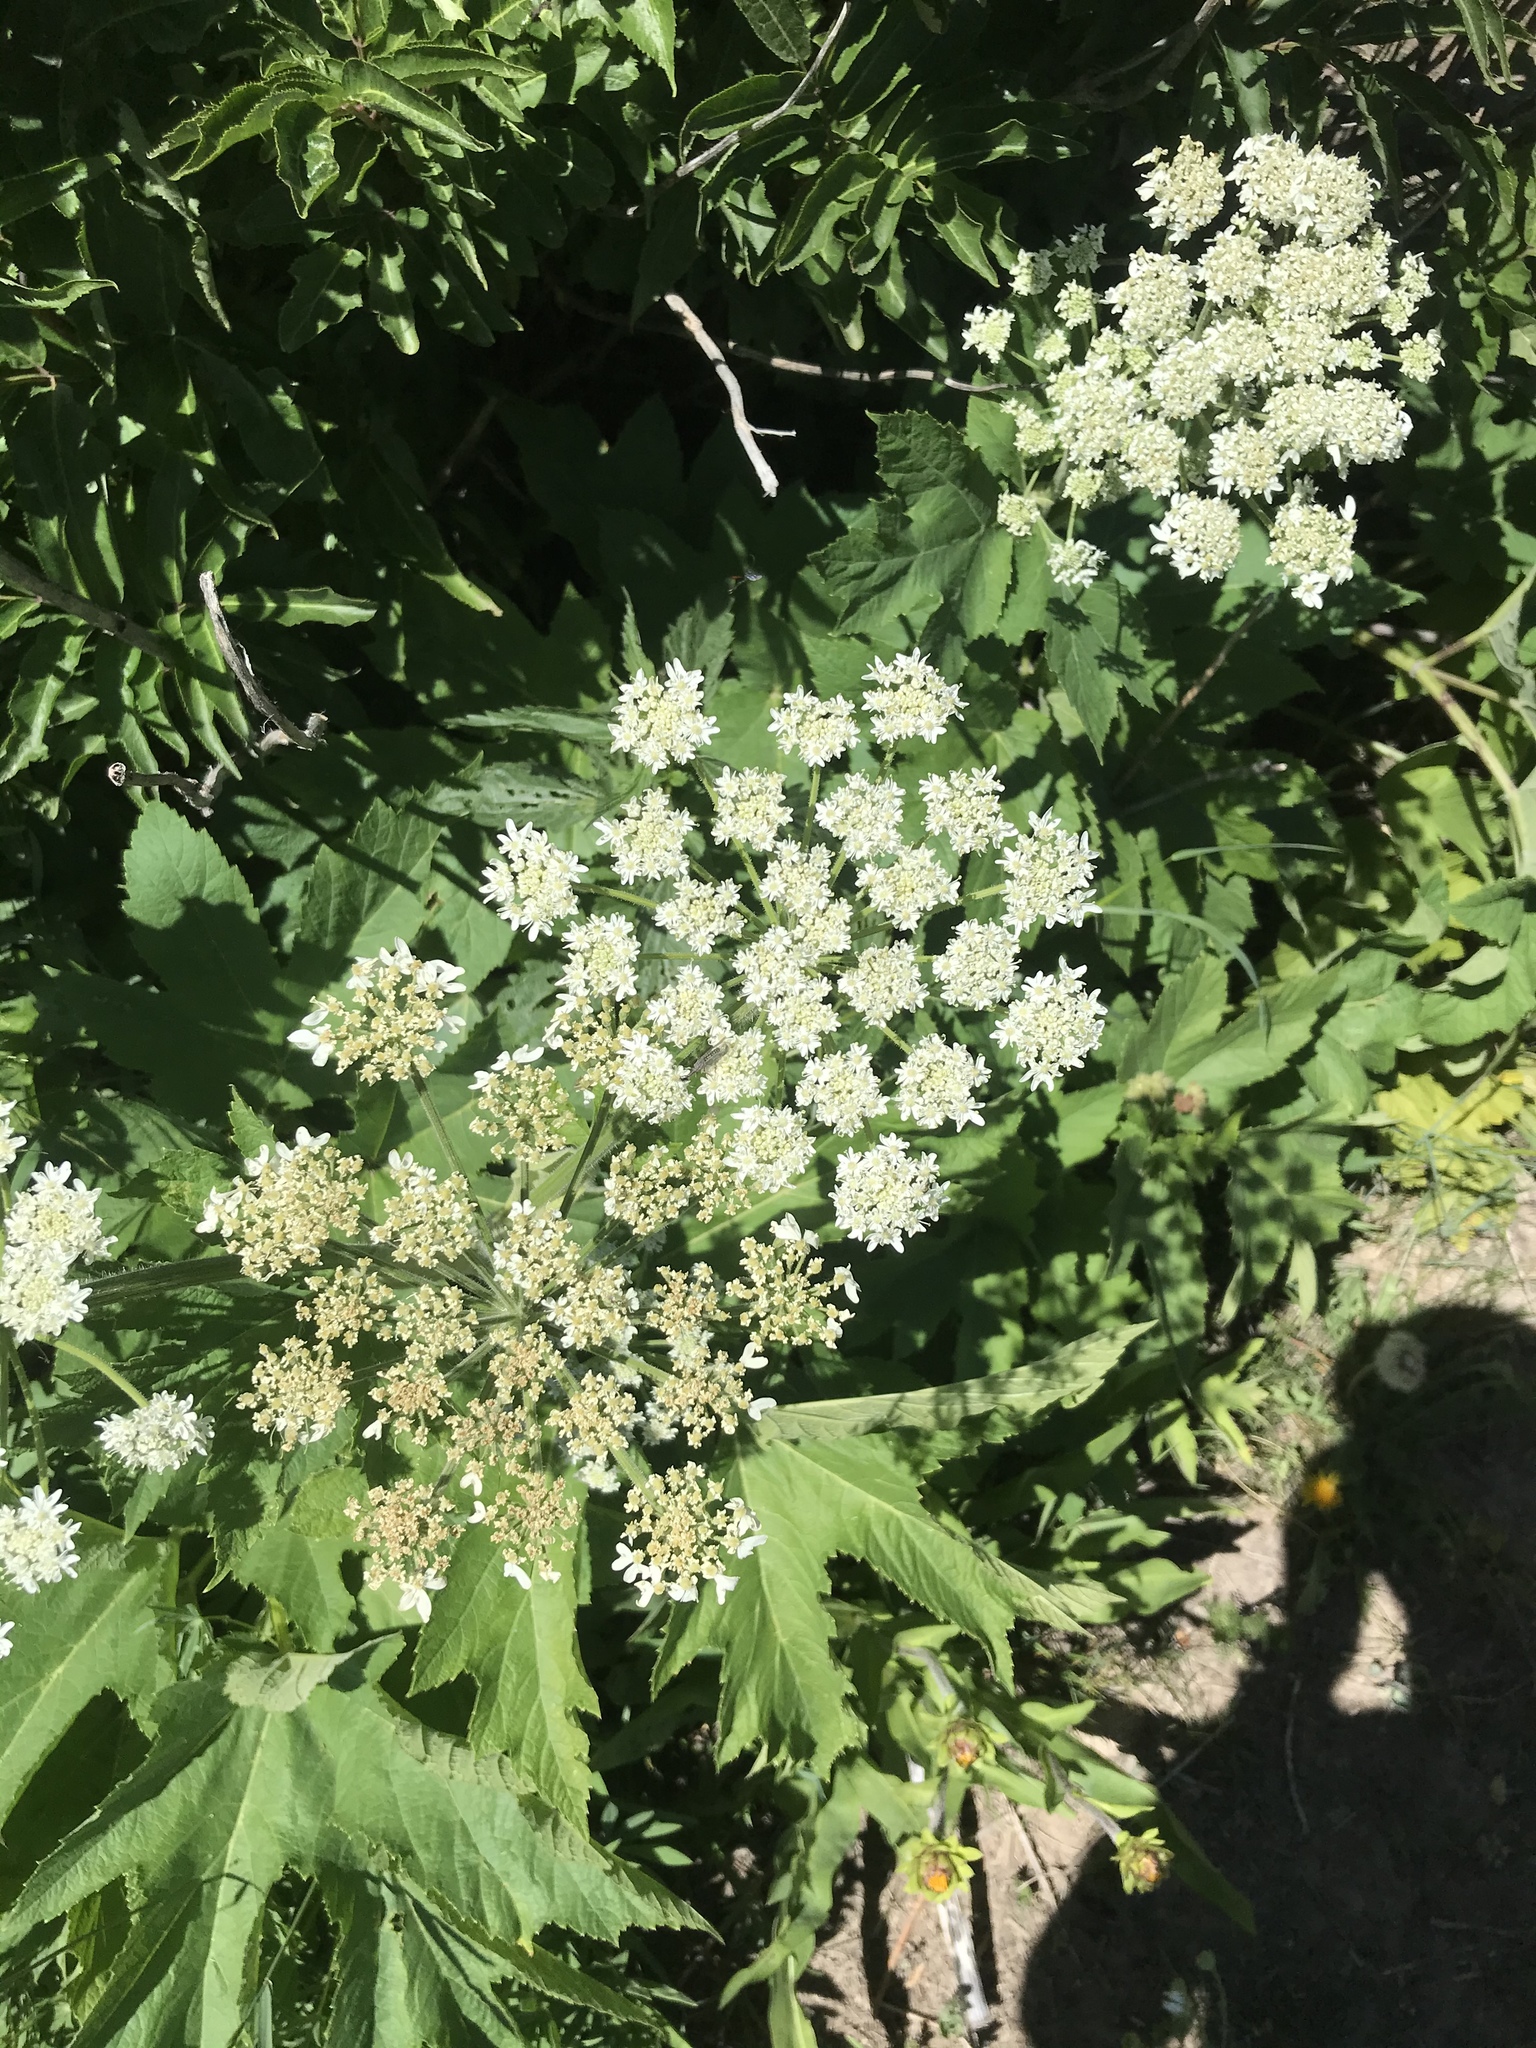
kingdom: Plantae
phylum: Tracheophyta
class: Magnoliopsida
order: Apiales
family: Apiaceae
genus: Heracleum
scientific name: Heracleum maximum
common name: American cow parsnip
